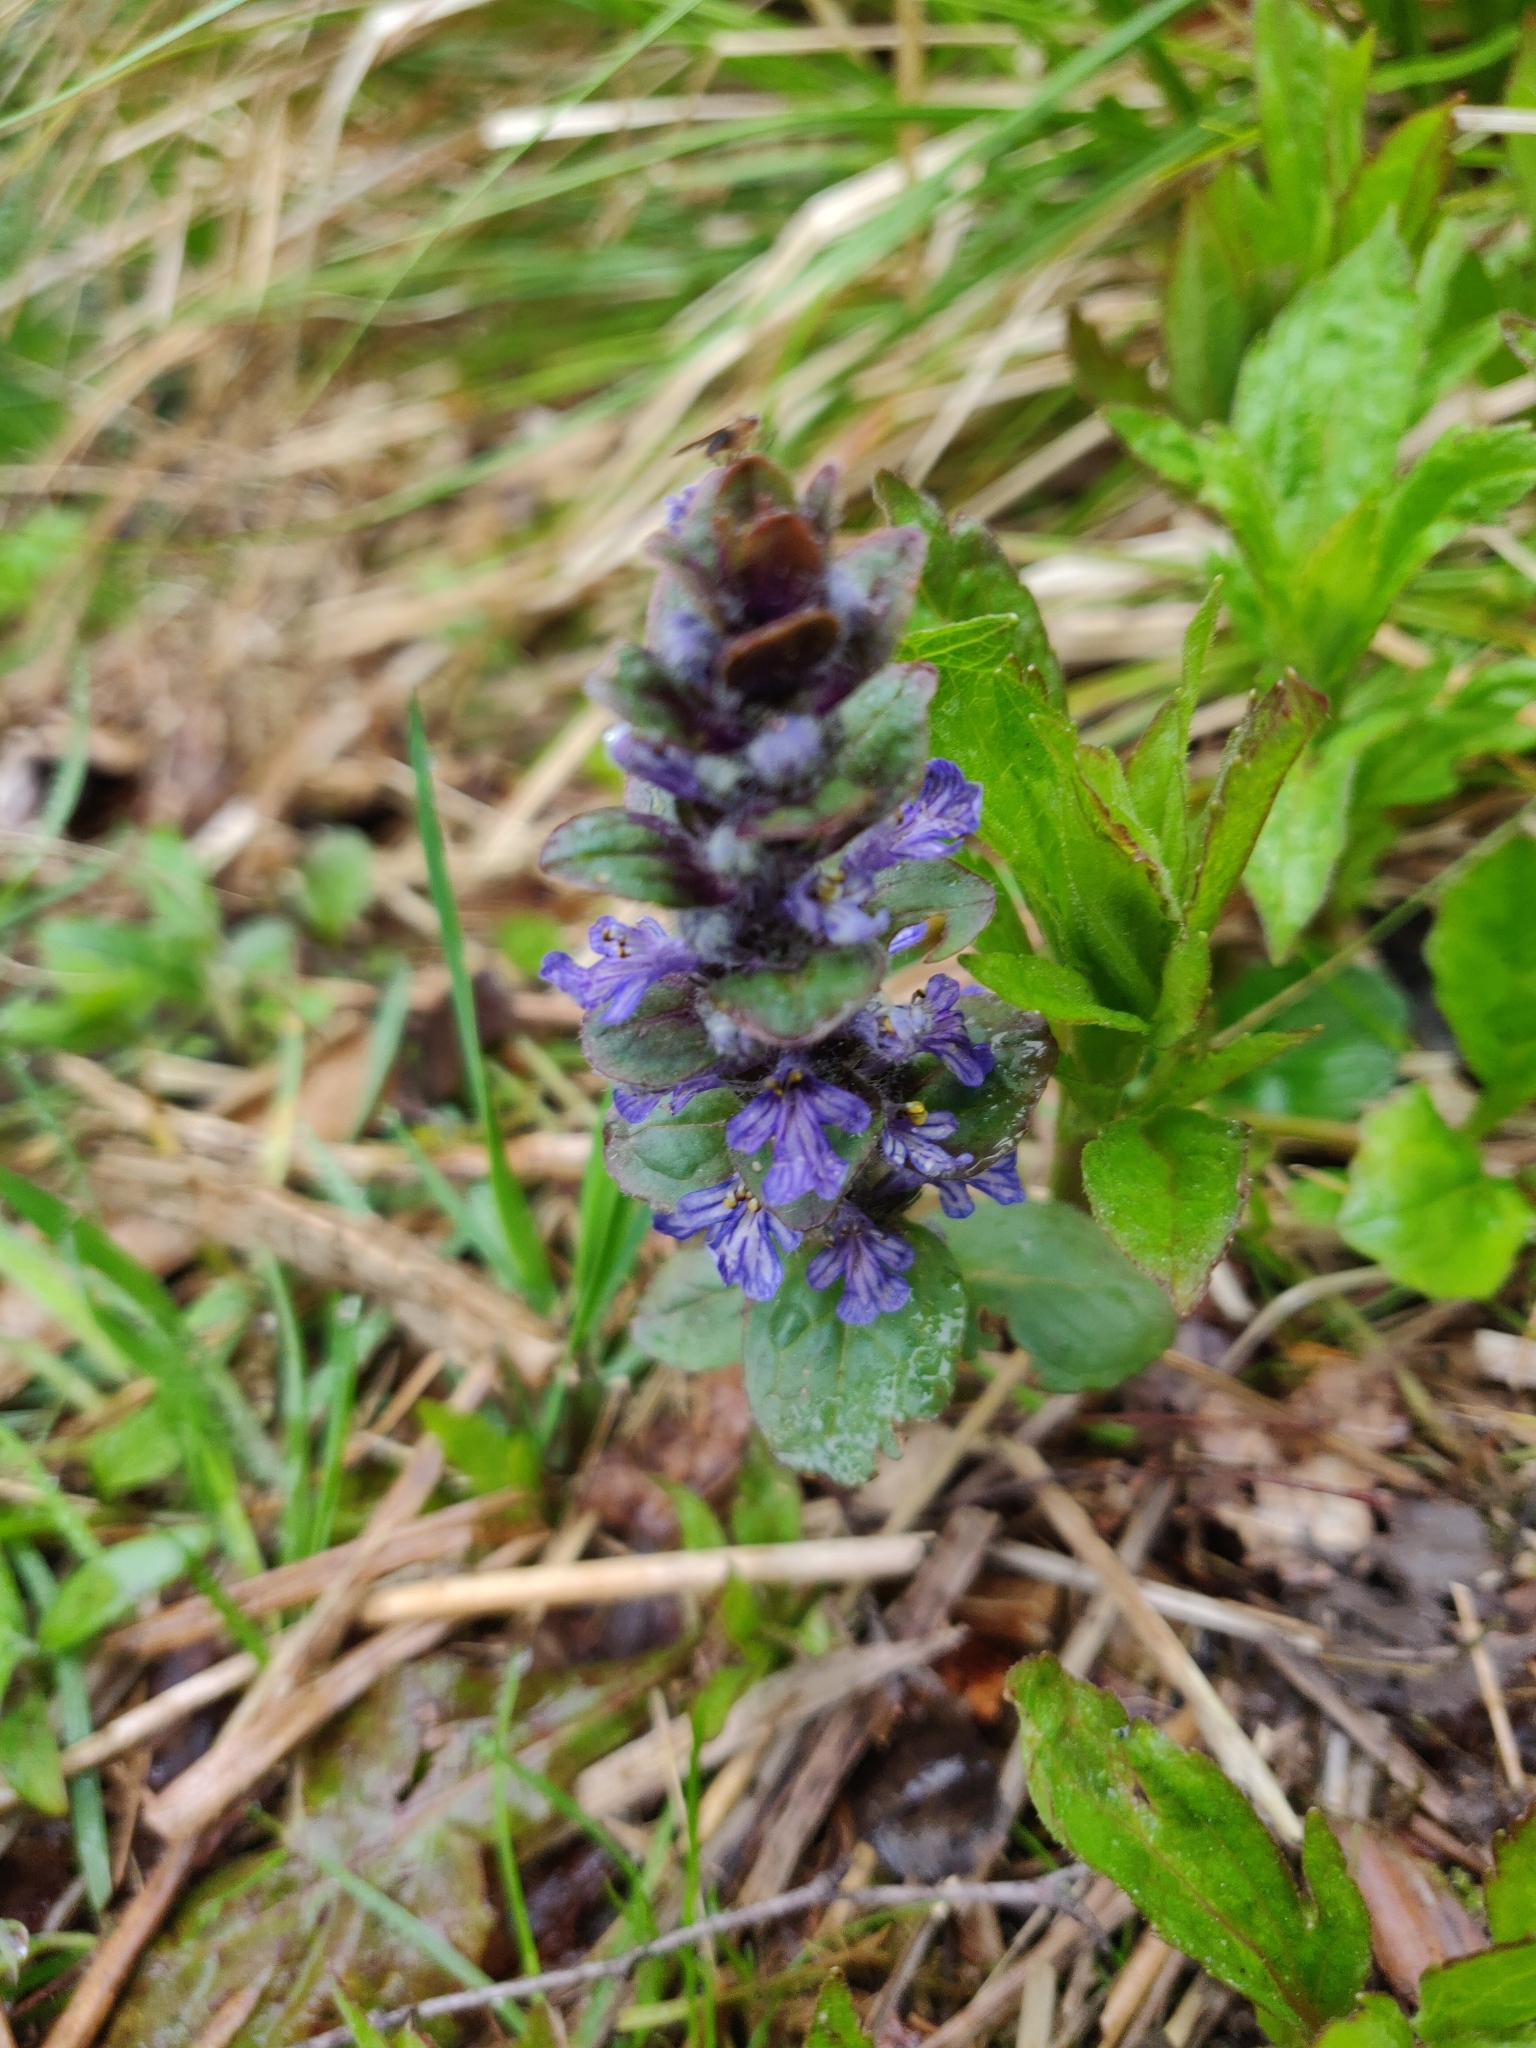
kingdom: Plantae
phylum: Tracheophyta
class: Magnoliopsida
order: Lamiales
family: Lamiaceae
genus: Ajuga
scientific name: Ajuga reptans
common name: Bugle
